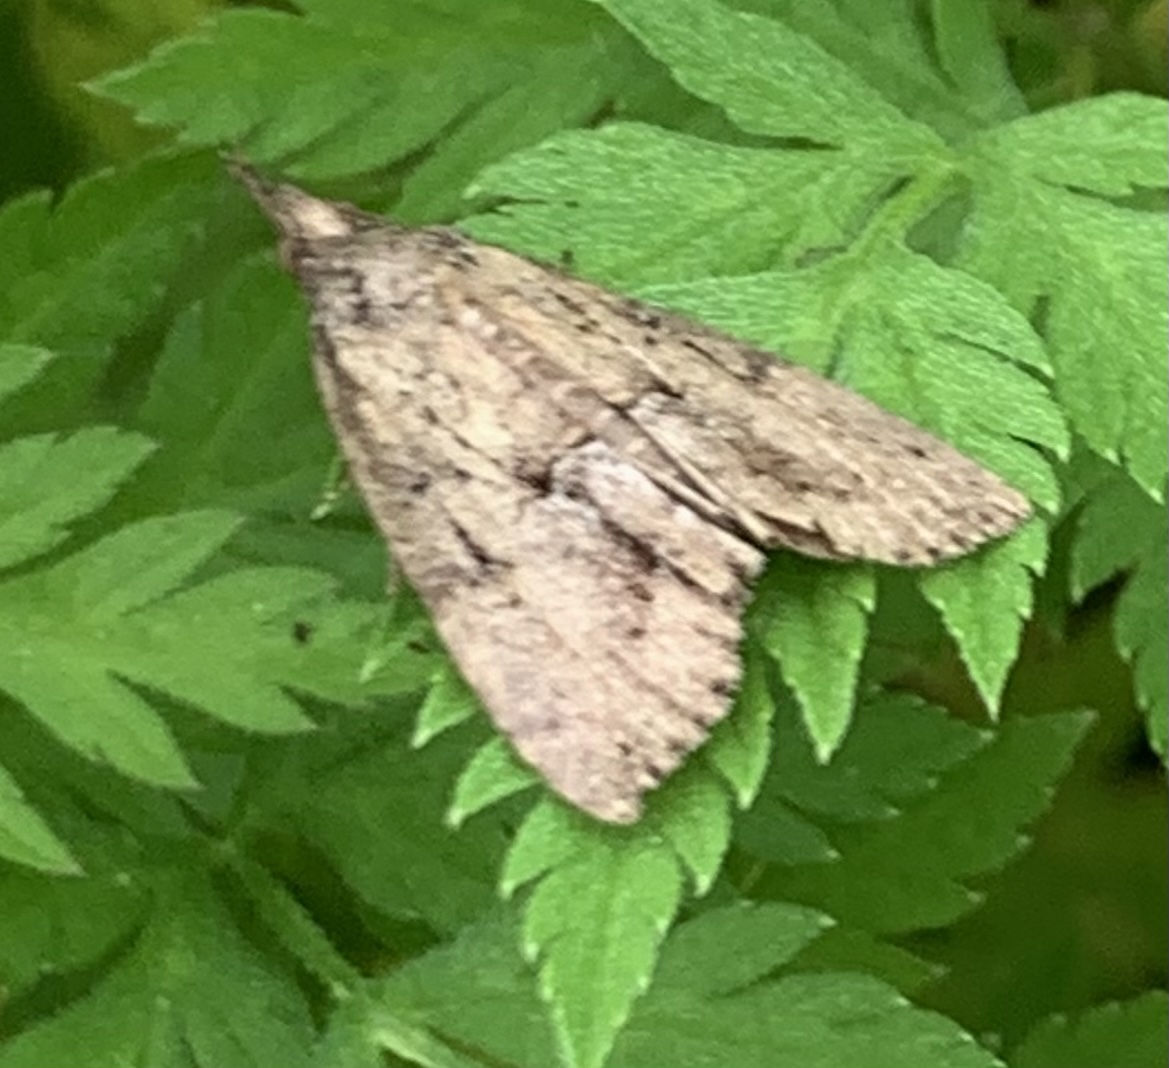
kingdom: Animalia
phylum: Arthropoda
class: Insecta
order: Lepidoptera
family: Erebidae
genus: Hypena
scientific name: Hypena scabra
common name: Green cloverworm
